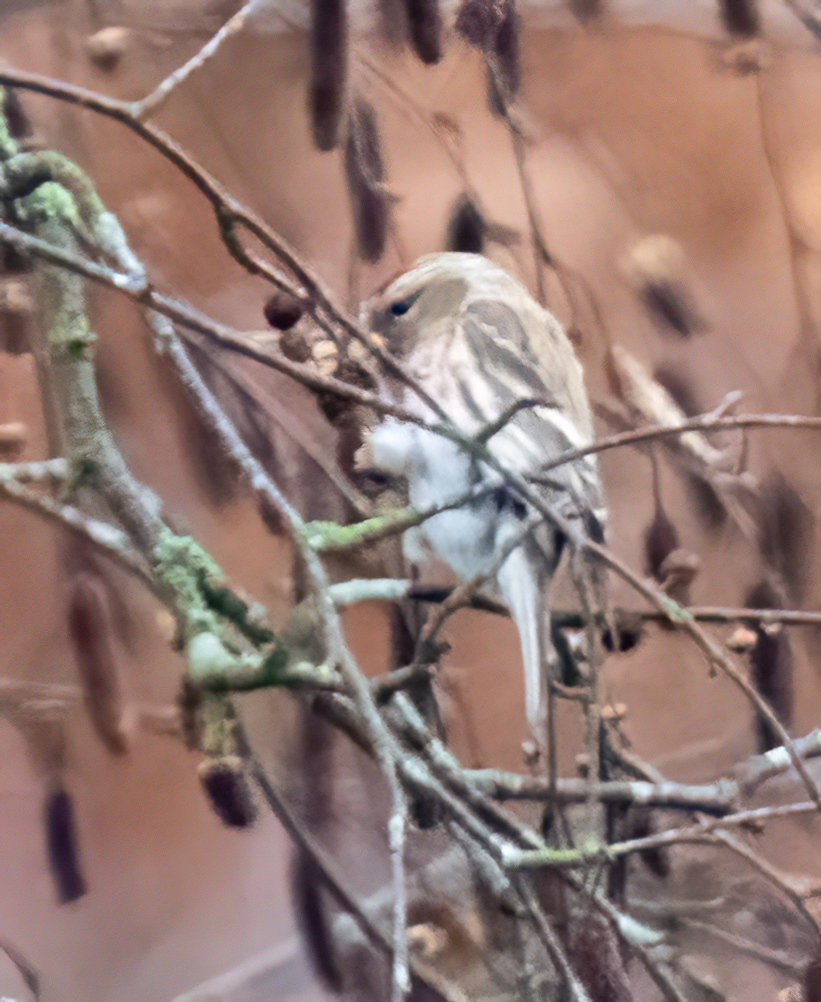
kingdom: Animalia
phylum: Chordata
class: Aves
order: Passeriformes
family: Fringillidae
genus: Acanthis
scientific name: Acanthis flammea
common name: Common redpoll
